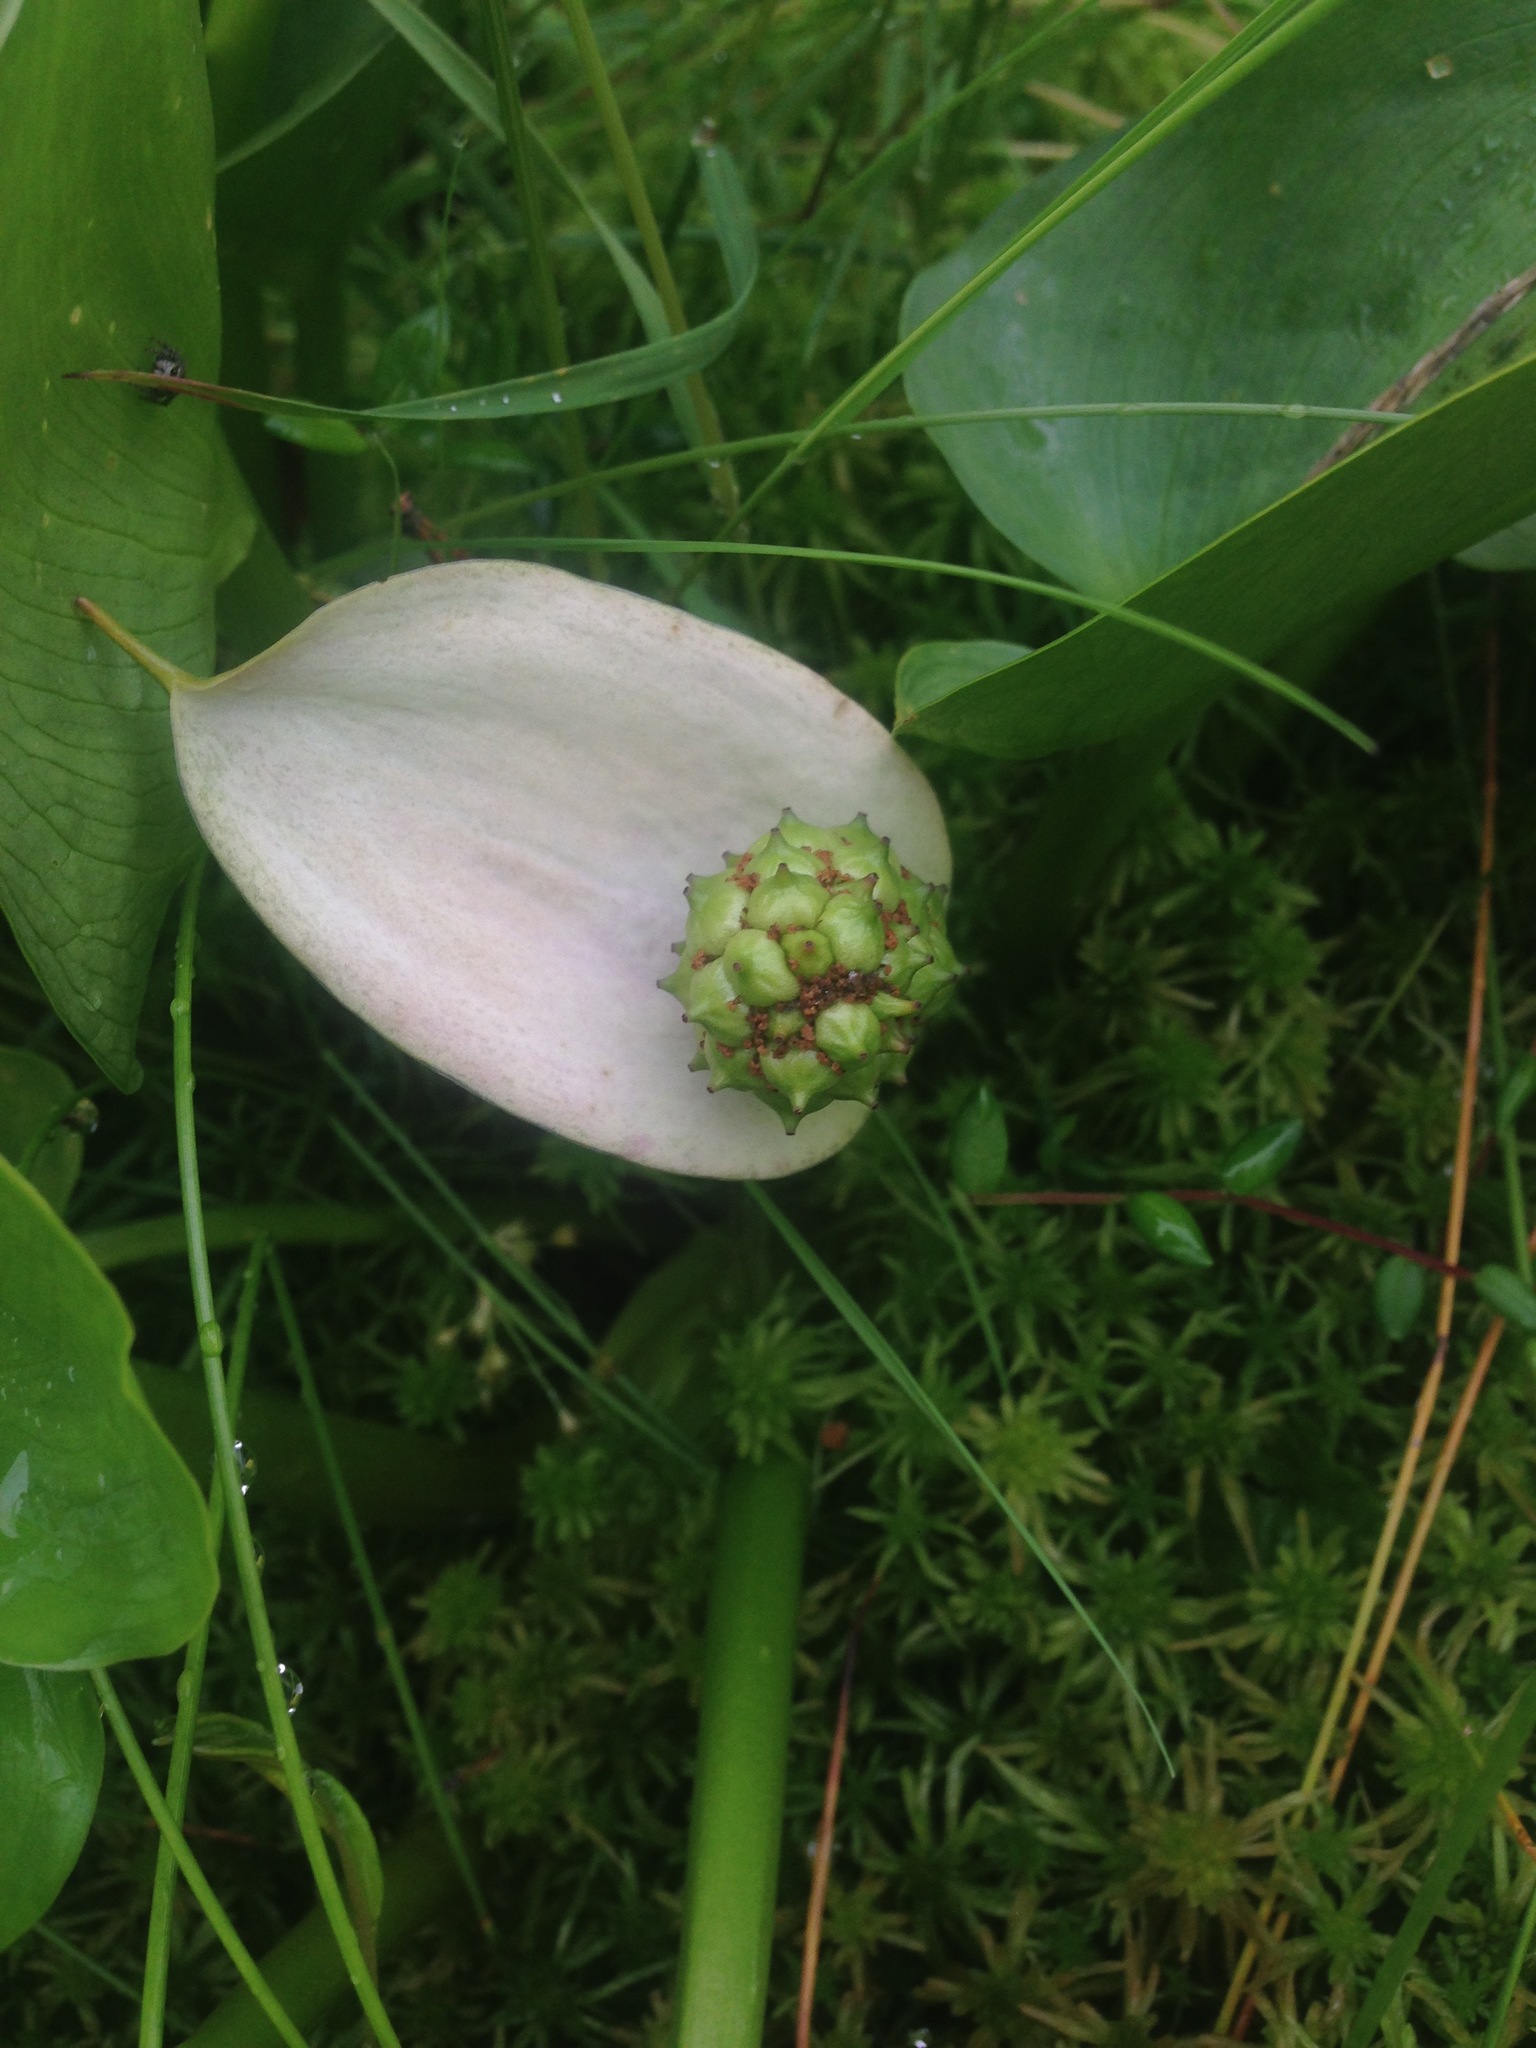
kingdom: Plantae
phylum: Tracheophyta
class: Liliopsida
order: Alismatales
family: Araceae
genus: Calla
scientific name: Calla palustris
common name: Bog arum
